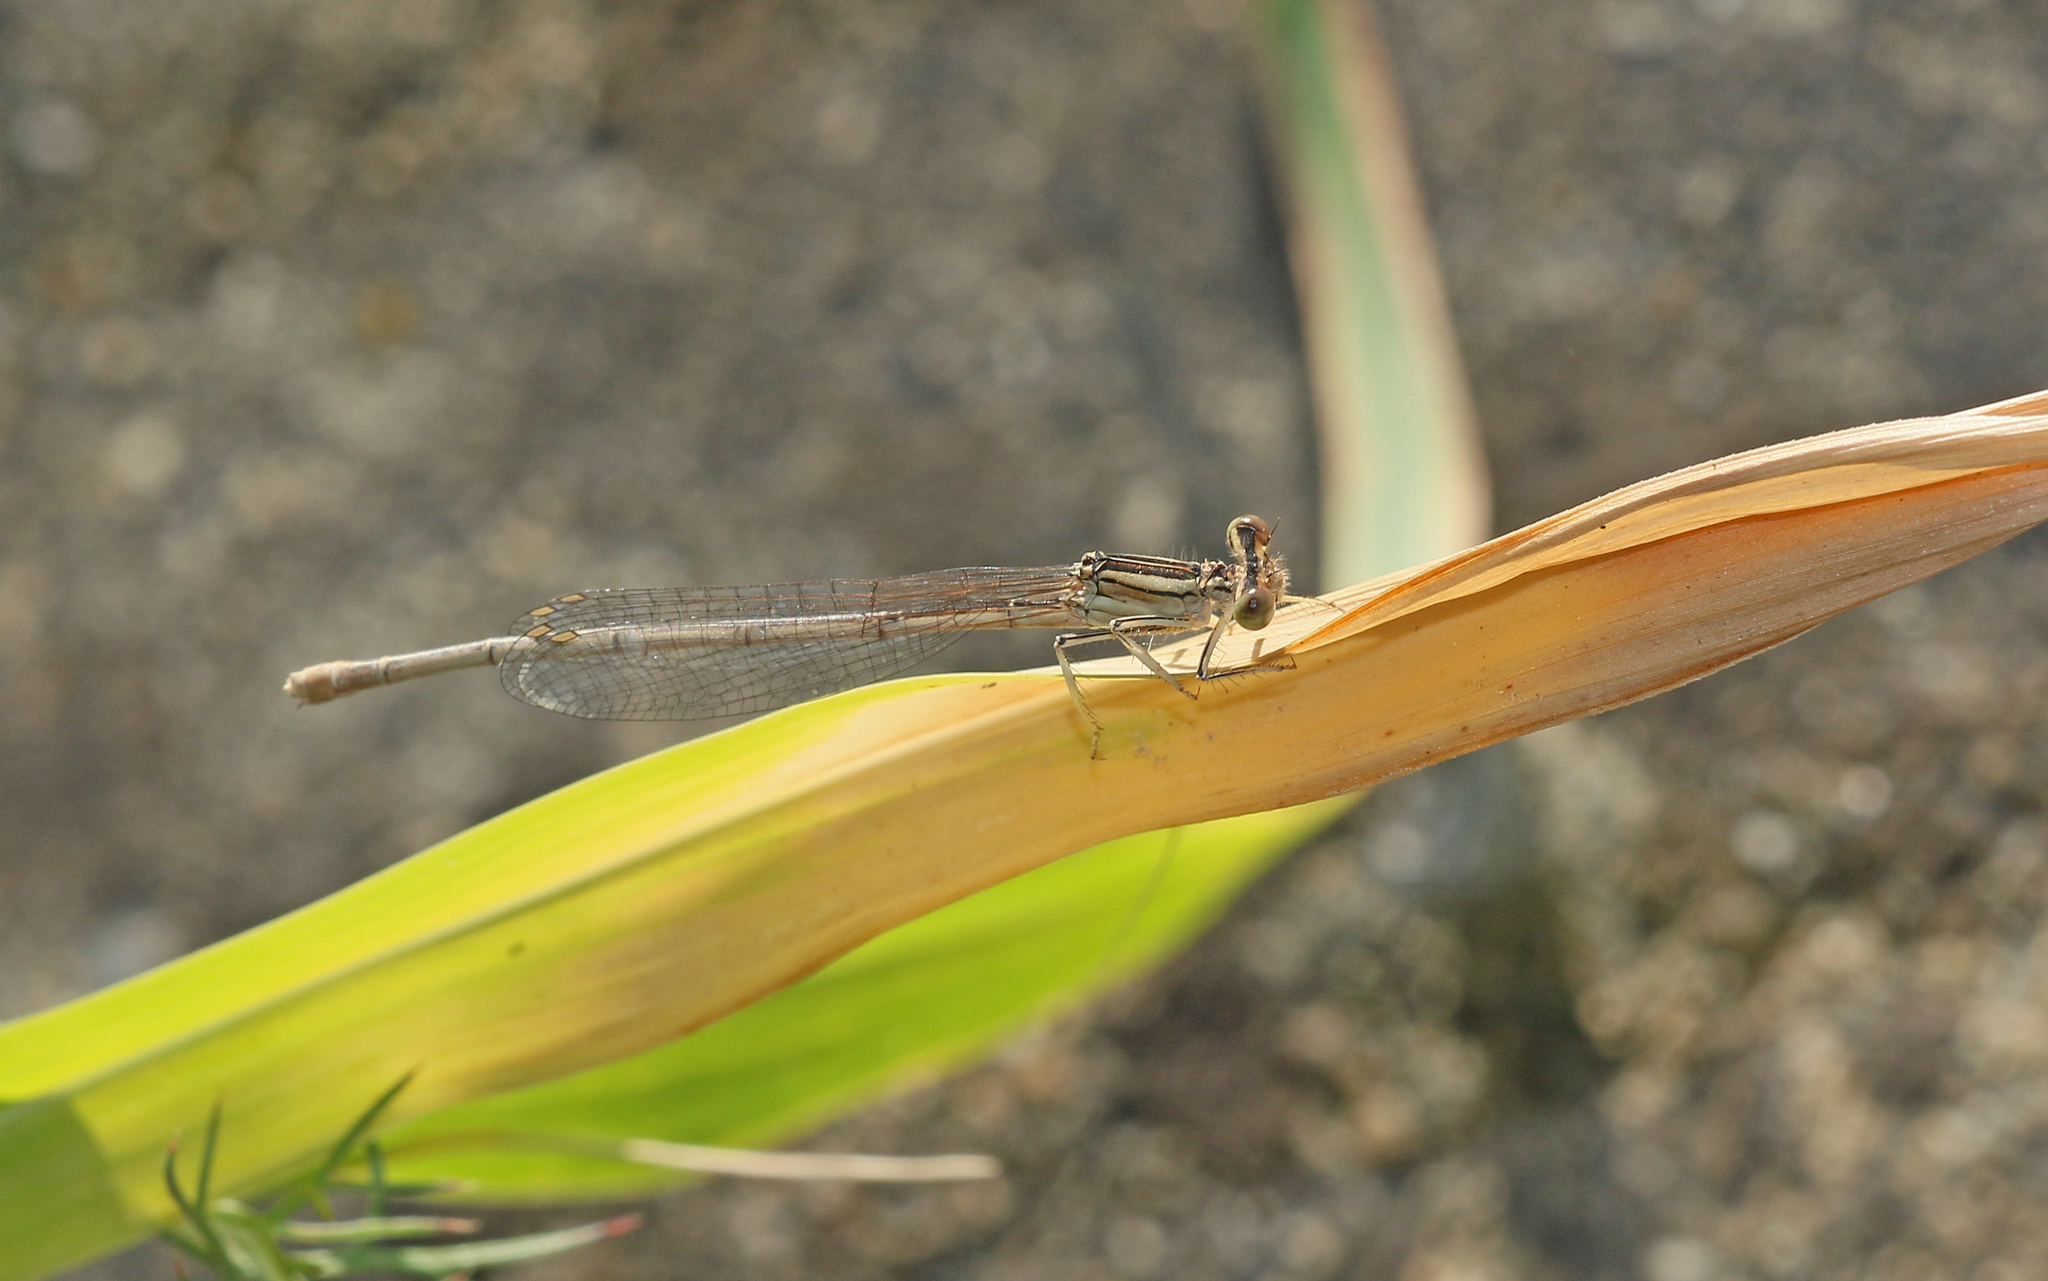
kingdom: Animalia
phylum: Arthropoda
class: Insecta
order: Odonata
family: Platycnemididae
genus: Platycnemis
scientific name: Platycnemis latipes
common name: White featherleg
